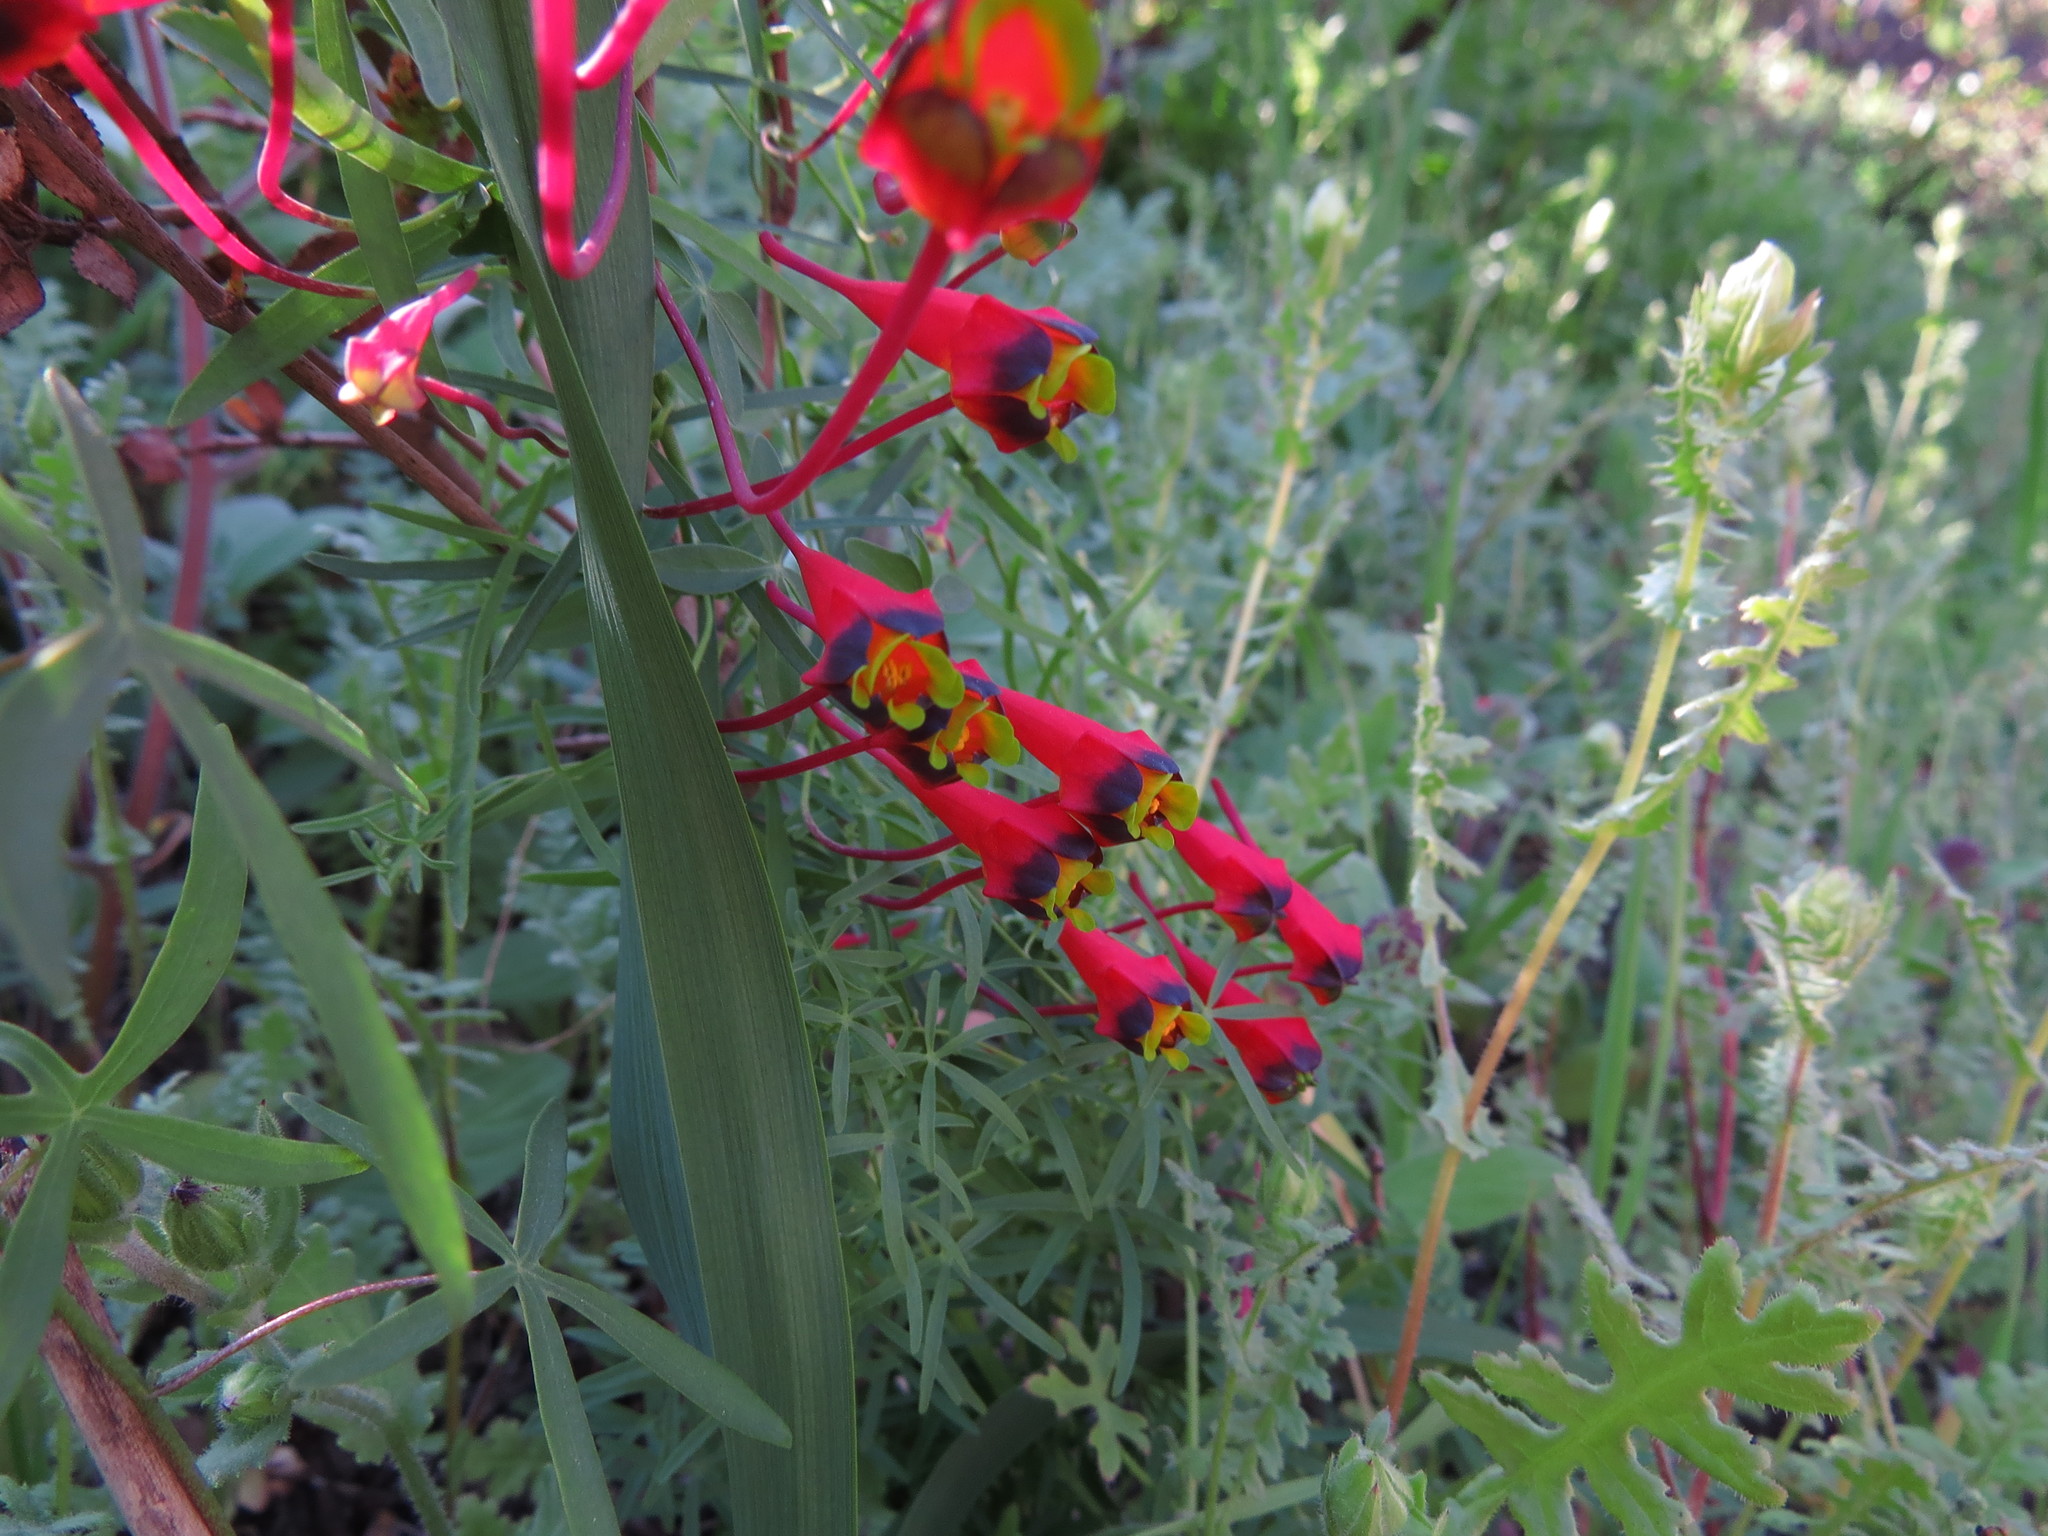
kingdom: Plantae
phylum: Tracheophyta
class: Magnoliopsida
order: Brassicales
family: Tropaeolaceae
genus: Tropaeolum
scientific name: Tropaeolum tricolor
